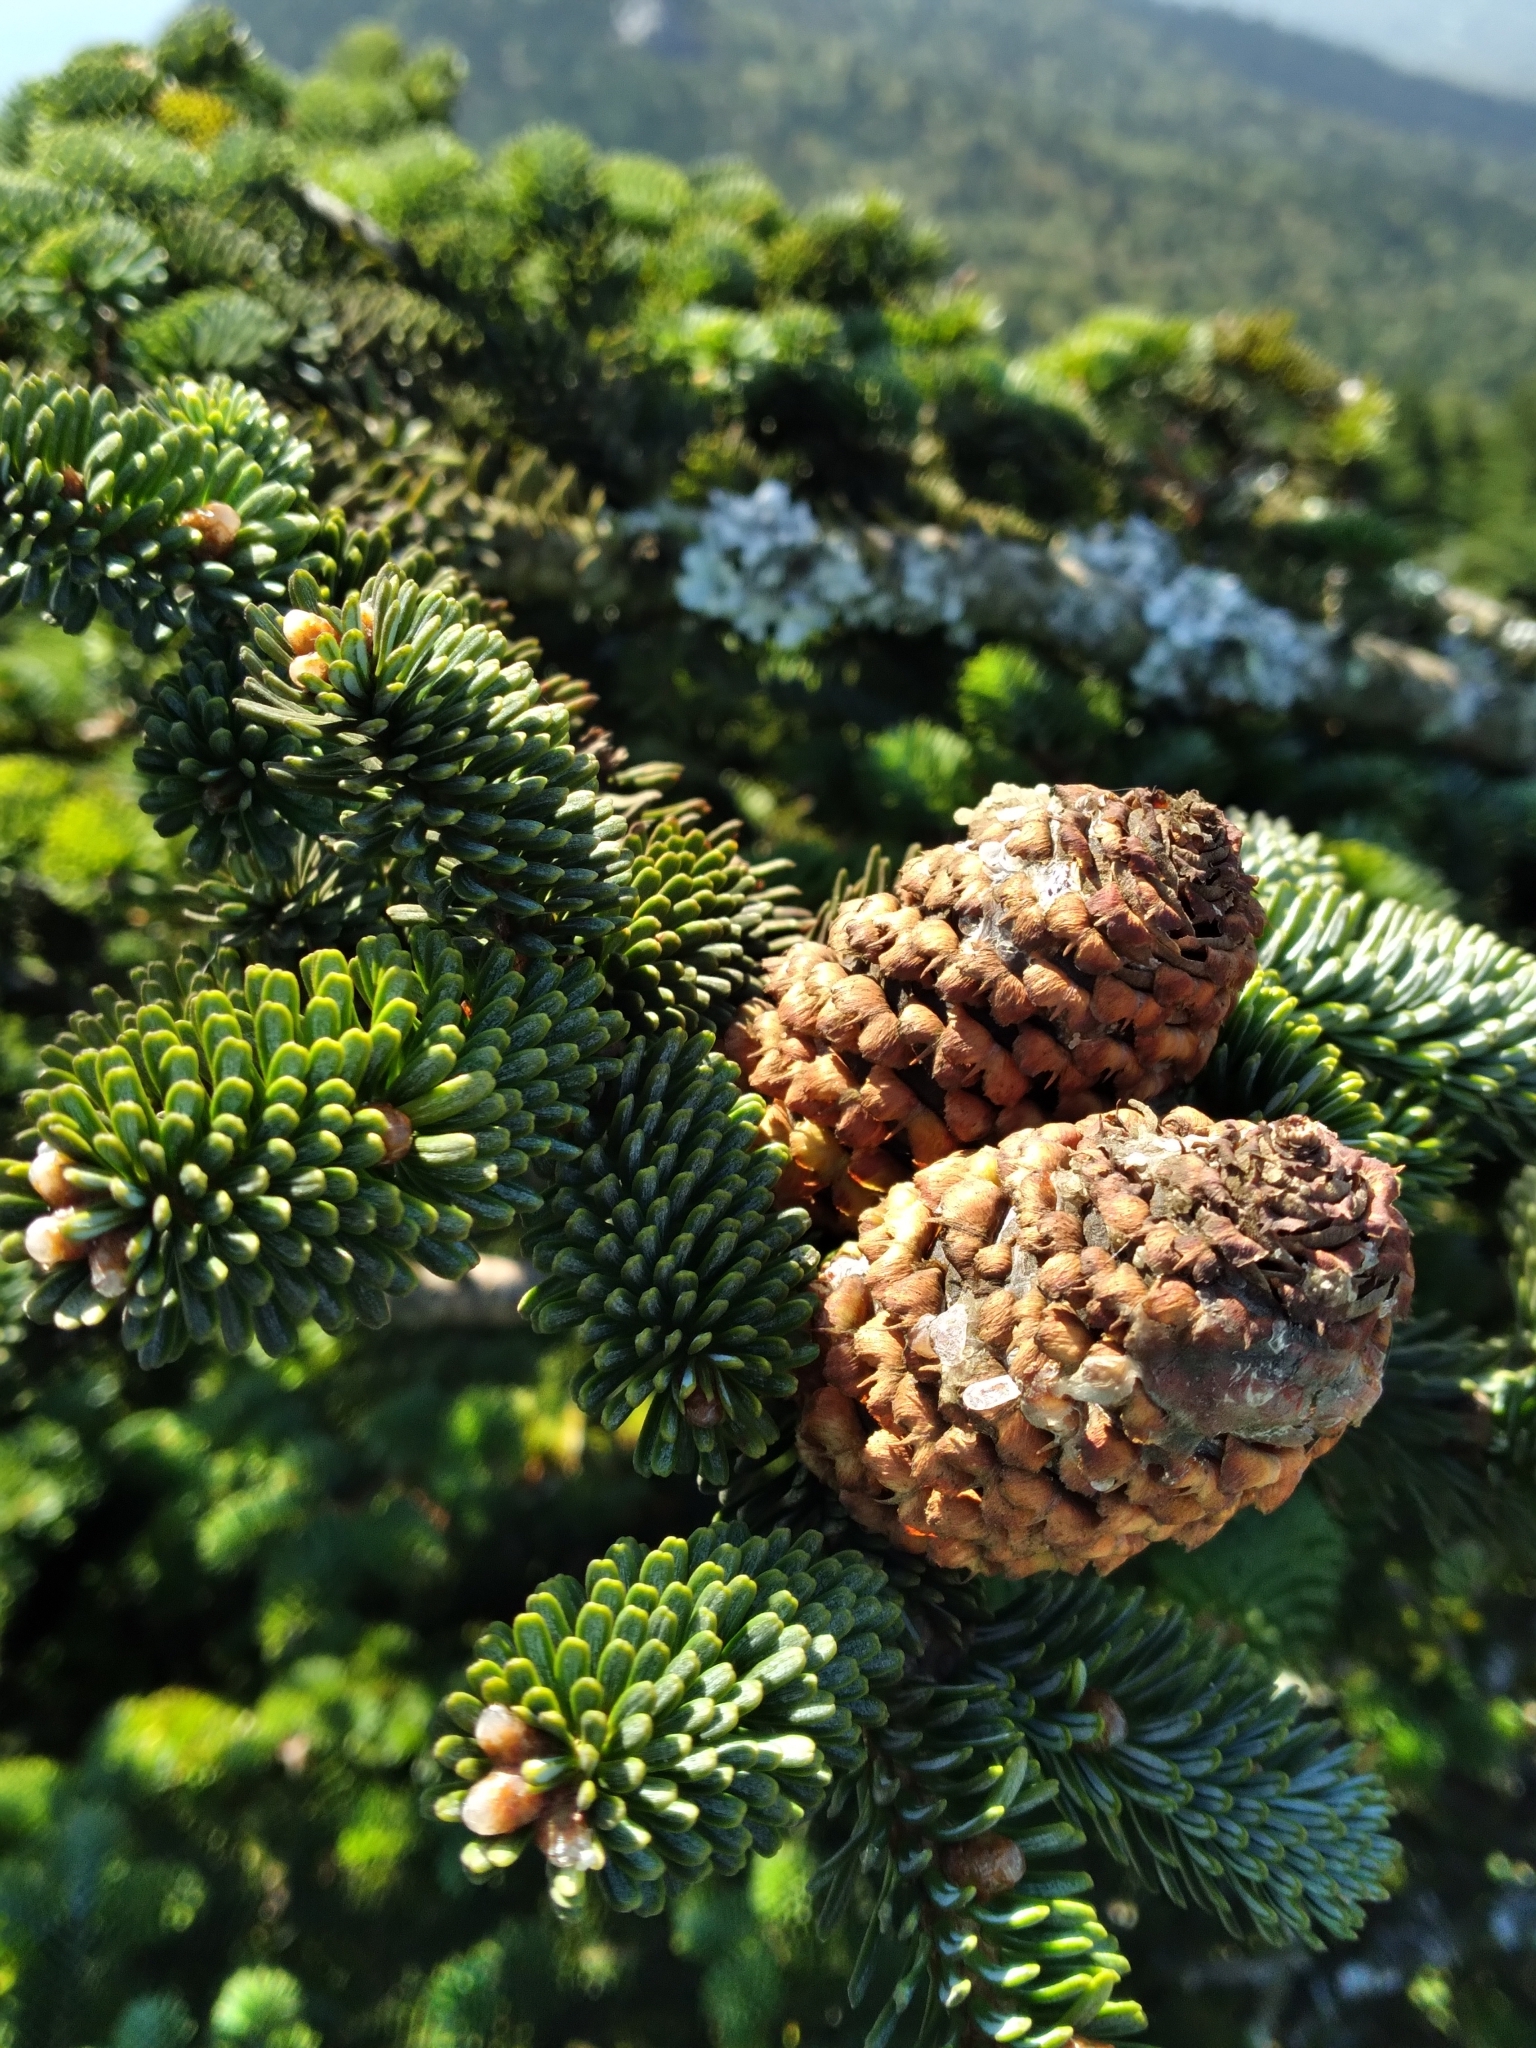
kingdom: Plantae
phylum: Tracheophyta
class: Pinopsida
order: Pinales
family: Pinaceae
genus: Abies
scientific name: Abies fraseri
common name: Fraser fir
